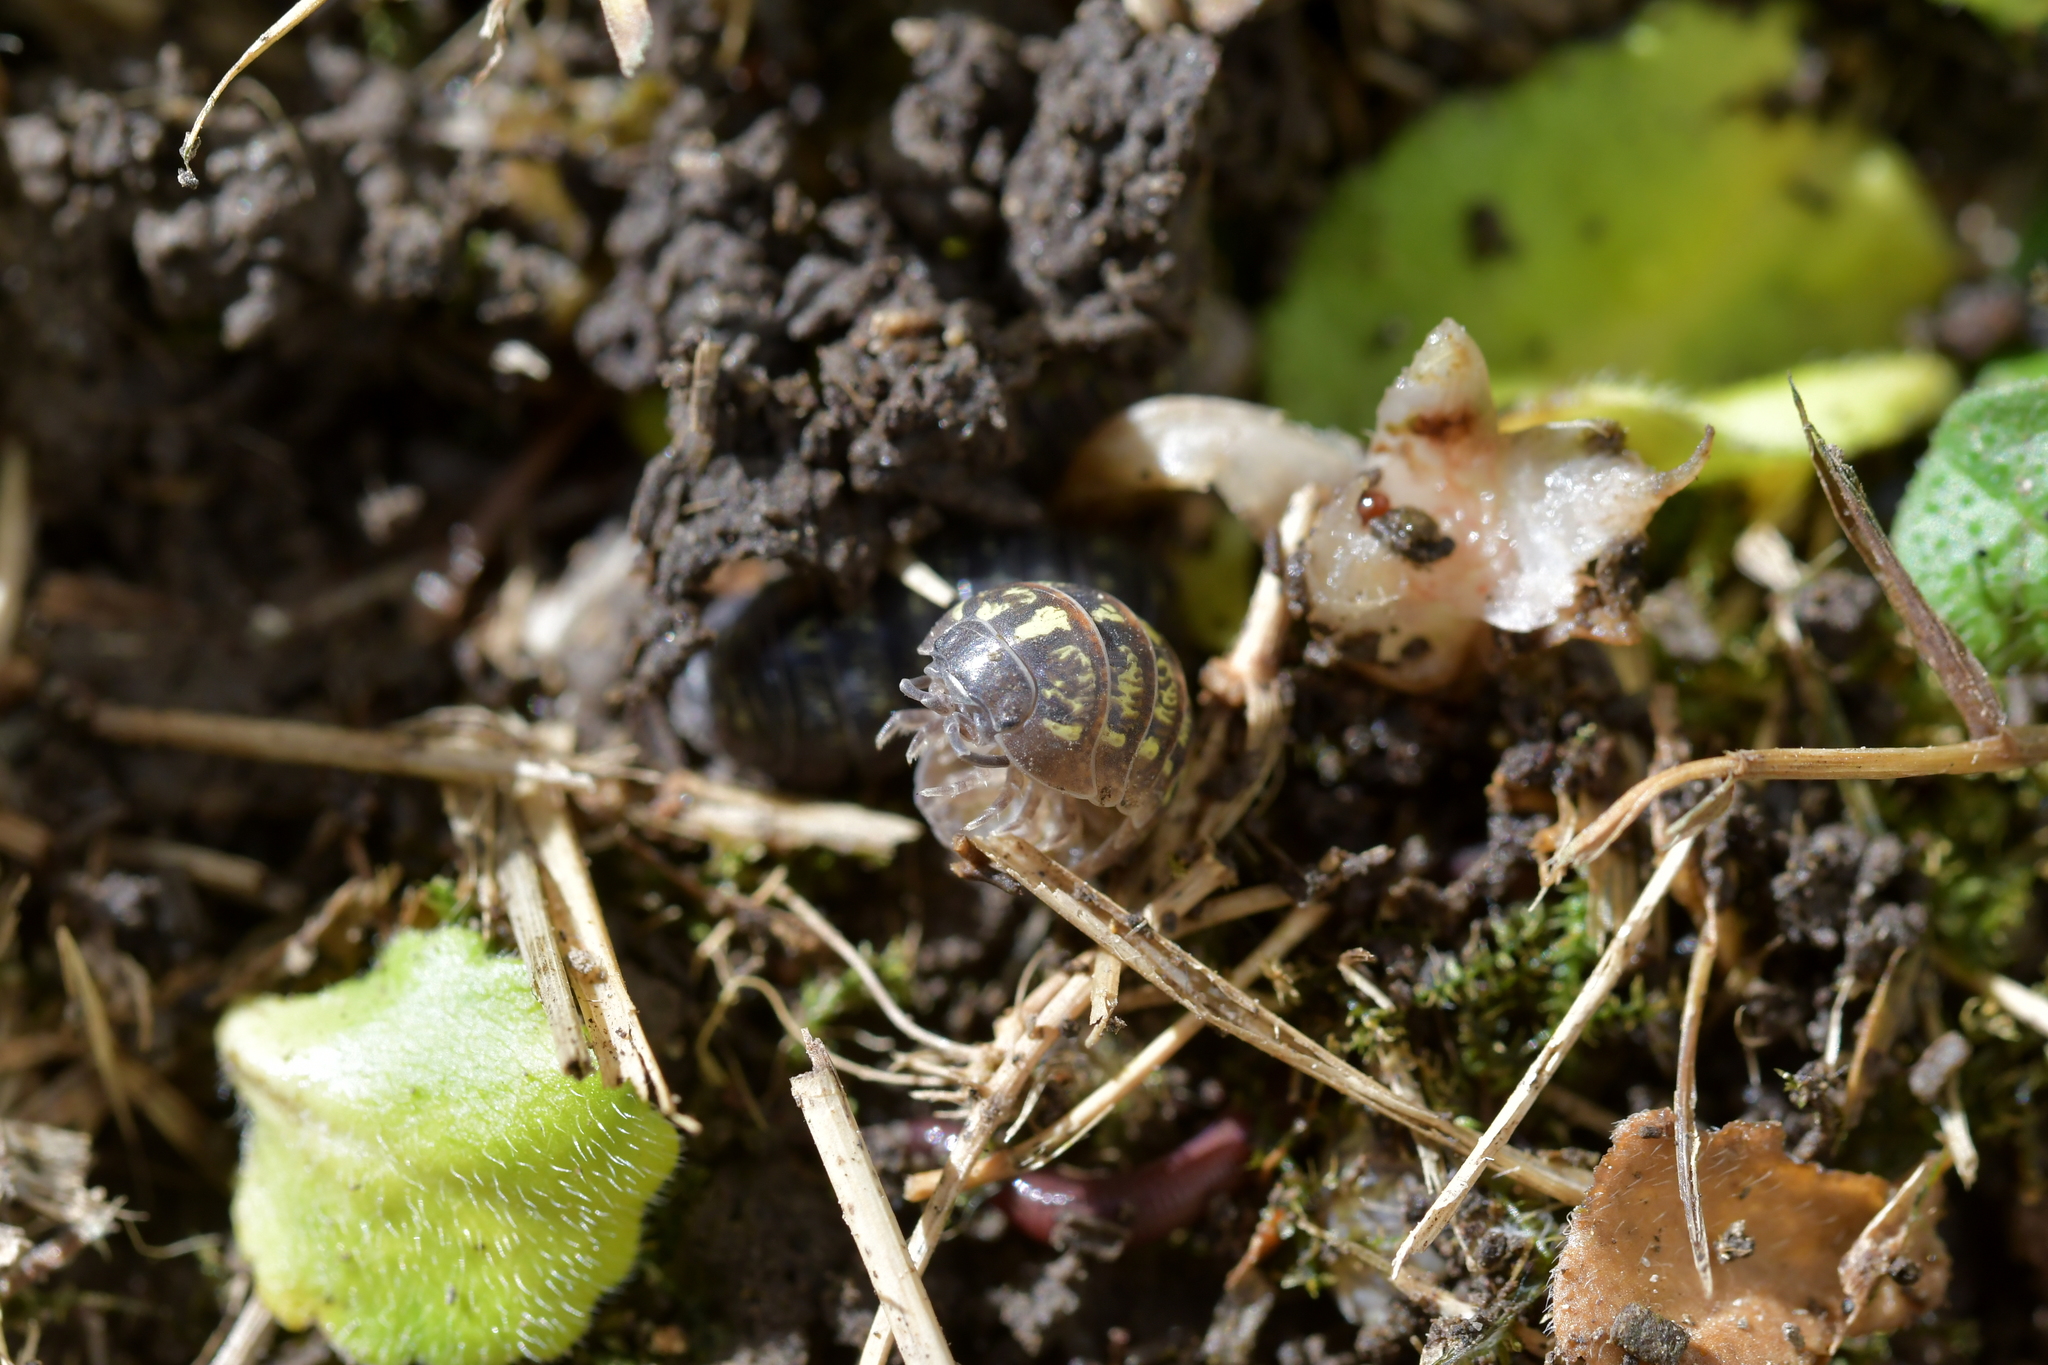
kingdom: Animalia
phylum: Arthropoda
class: Malacostraca
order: Isopoda
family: Armadillidiidae
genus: Armadillidium
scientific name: Armadillidium vulgare
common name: Common pill woodlouse
